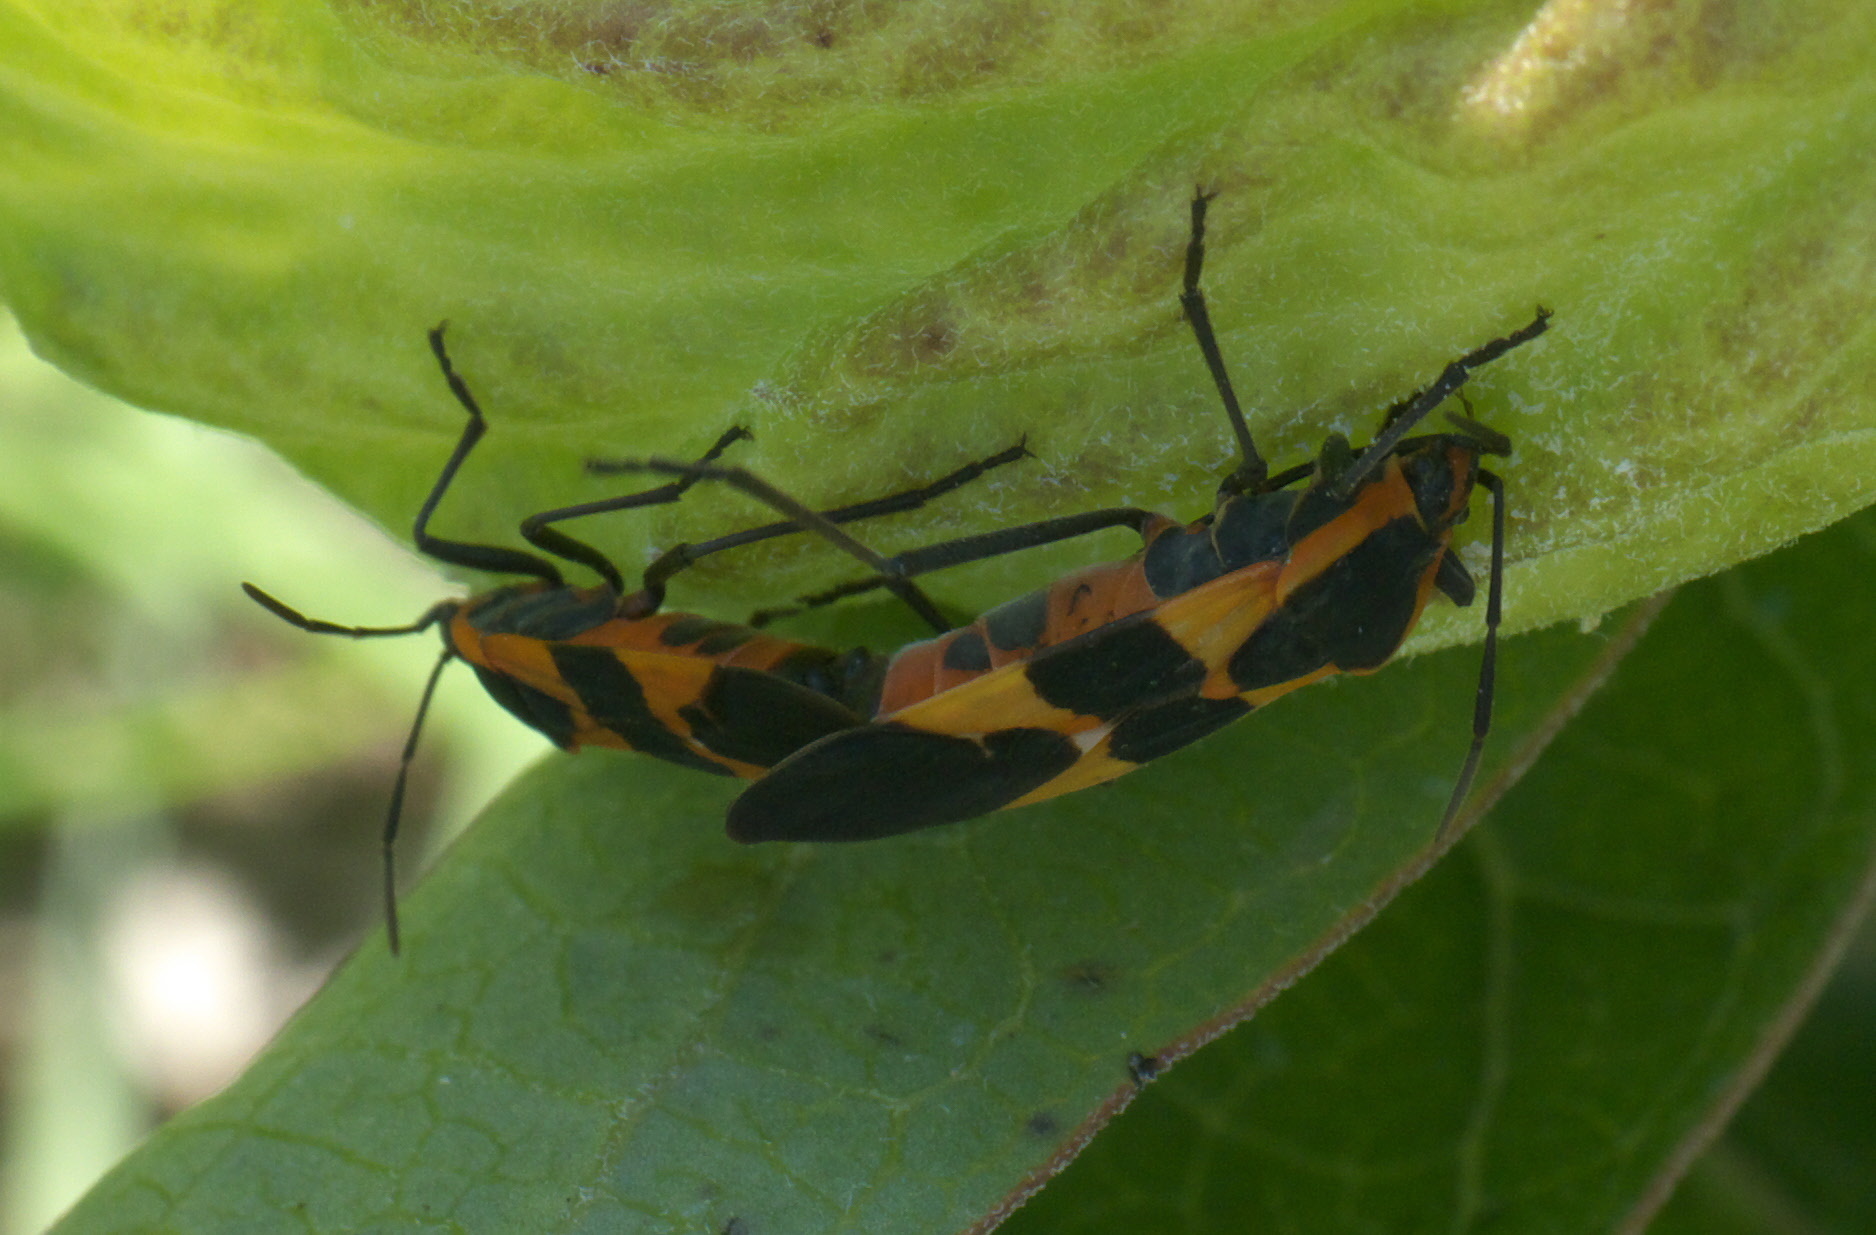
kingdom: Animalia
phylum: Arthropoda
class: Insecta
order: Hemiptera
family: Lygaeidae
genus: Oncopeltus
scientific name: Oncopeltus fasciatus
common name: Large milkweed bug
